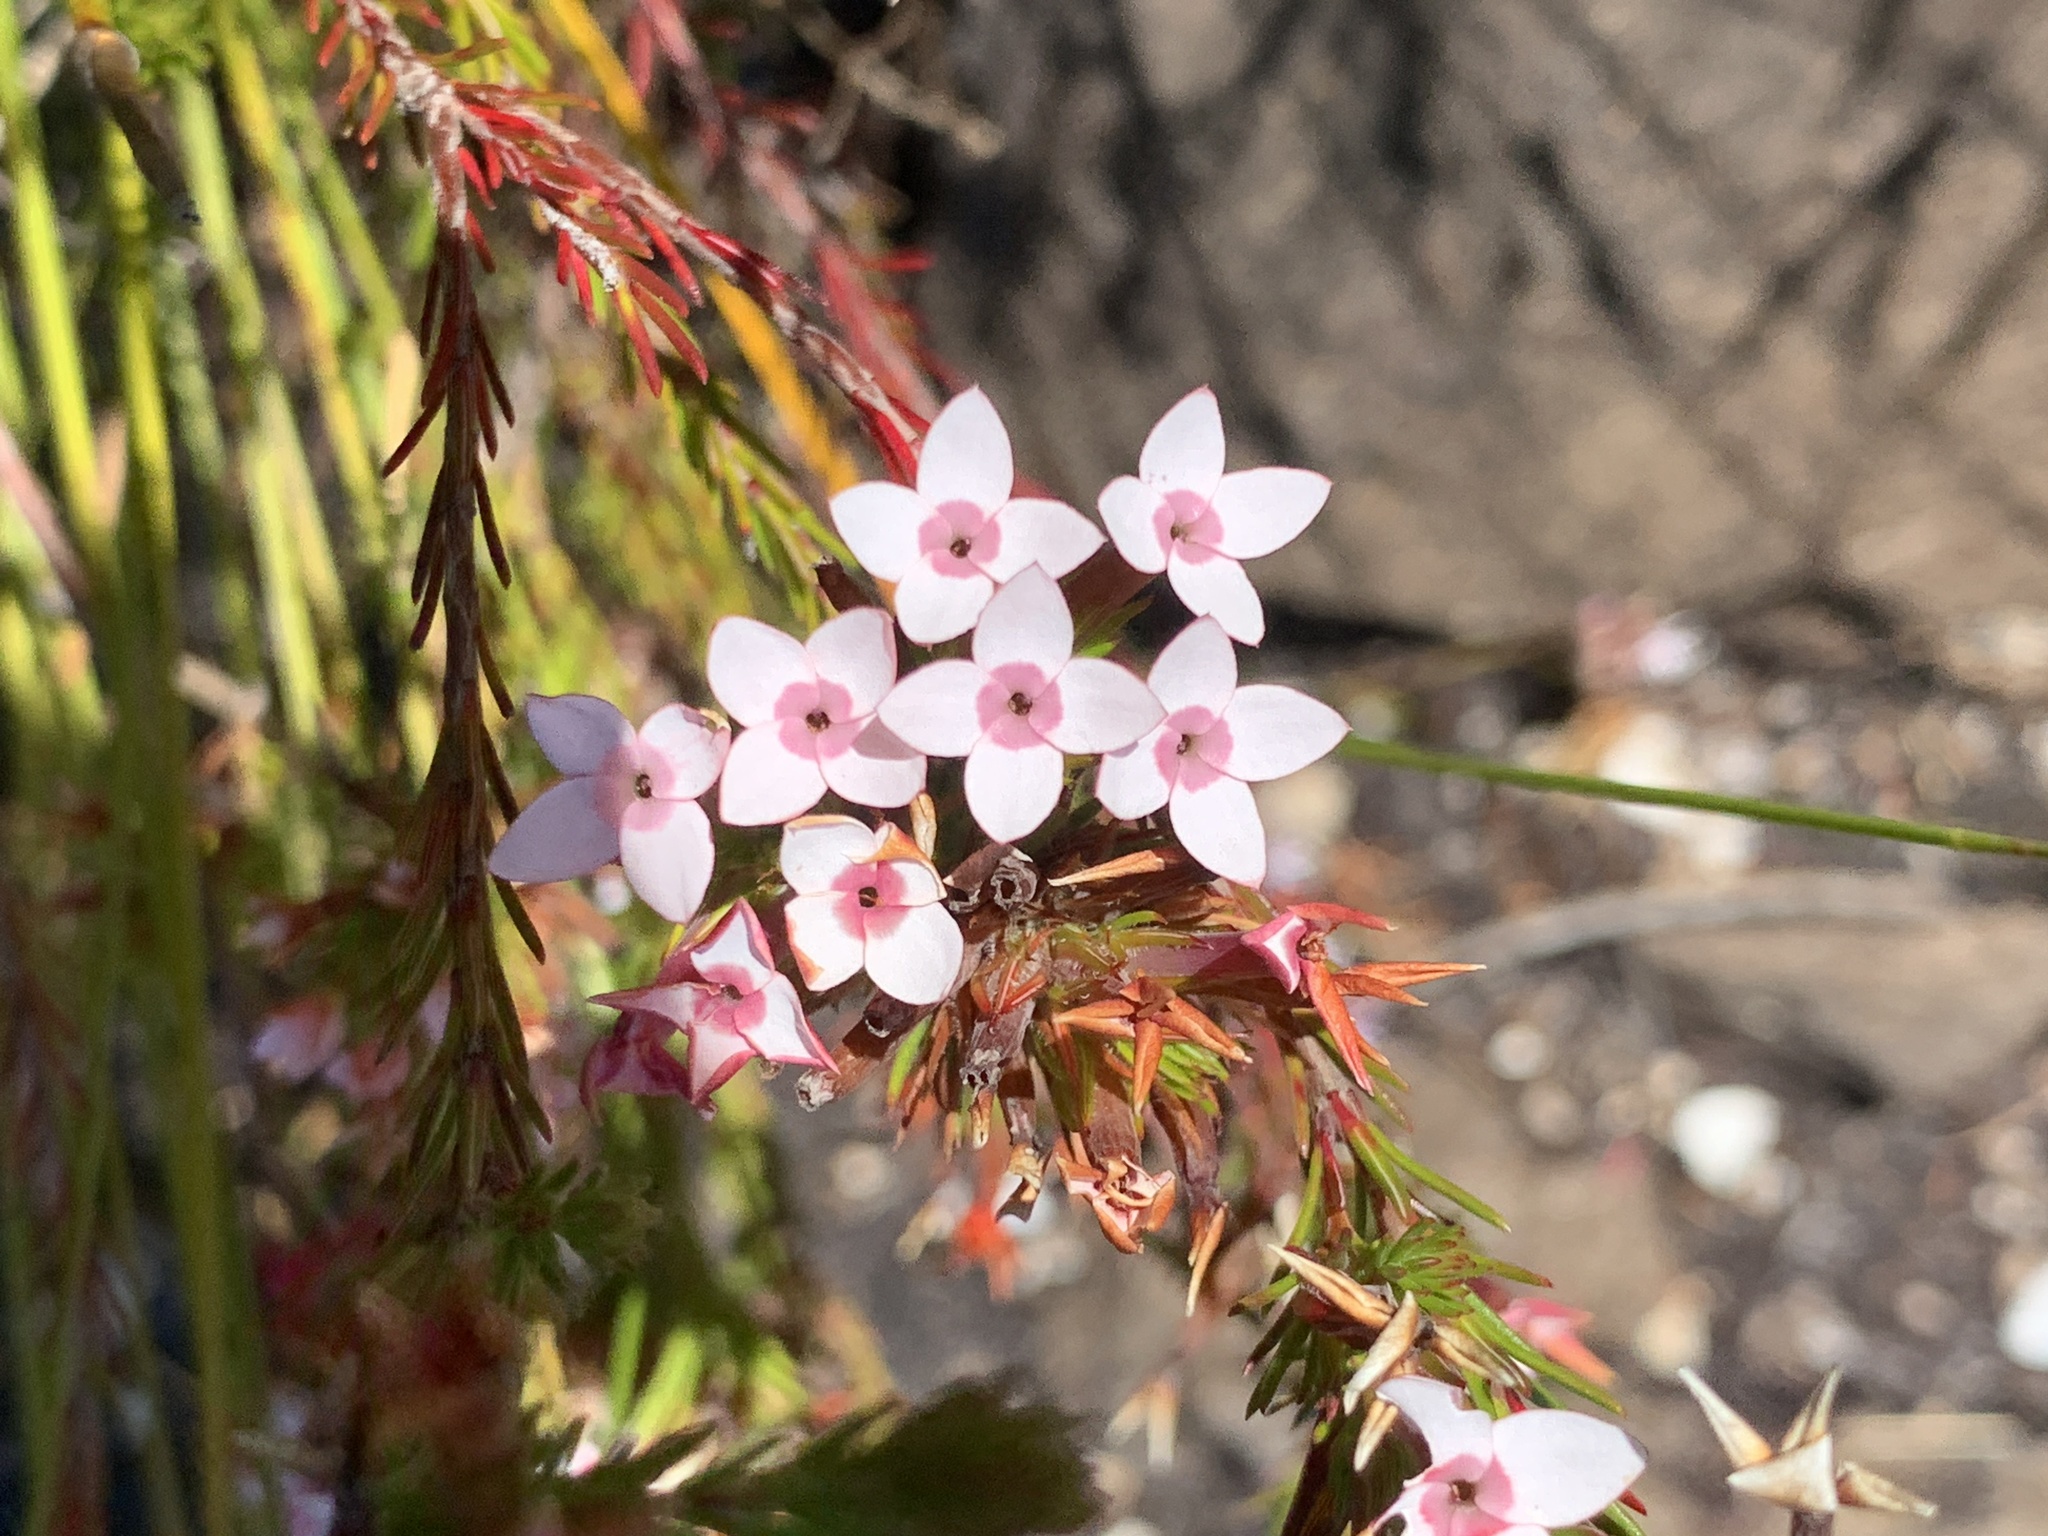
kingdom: Plantae
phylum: Tracheophyta
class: Magnoliopsida
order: Ericales
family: Ericaceae
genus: Erica
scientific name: Erica fastigiata
